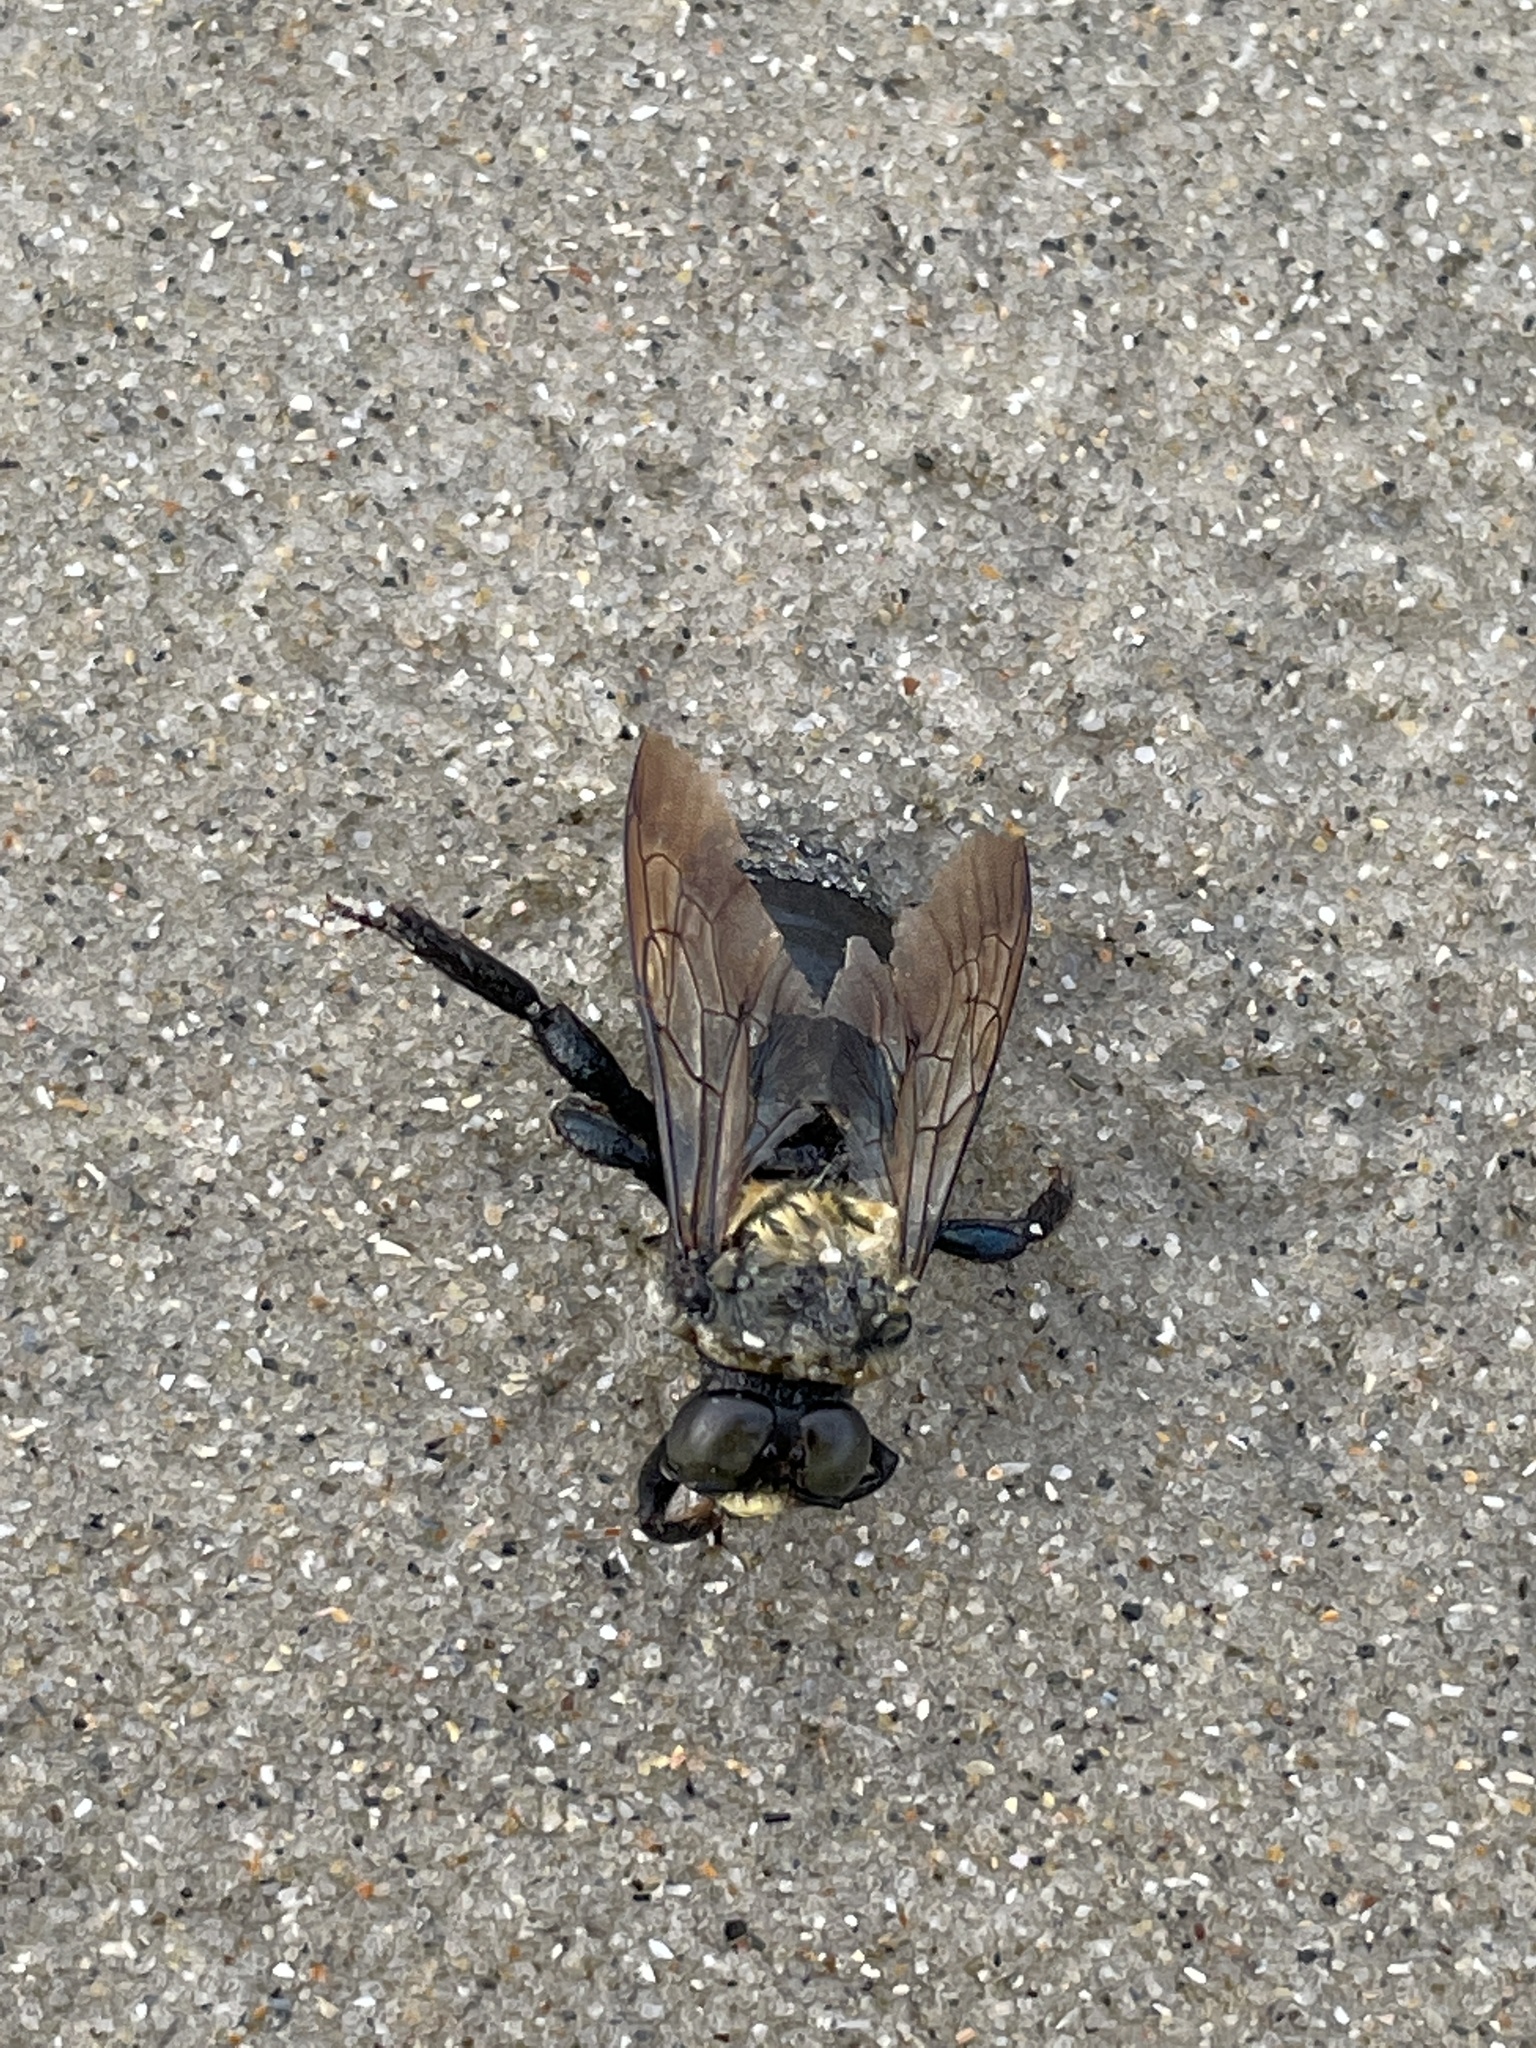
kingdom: Animalia
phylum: Arthropoda
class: Insecta
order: Hymenoptera
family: Apidae
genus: Xylocopa
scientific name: Xylocopa virginica
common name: Carpenter bee
